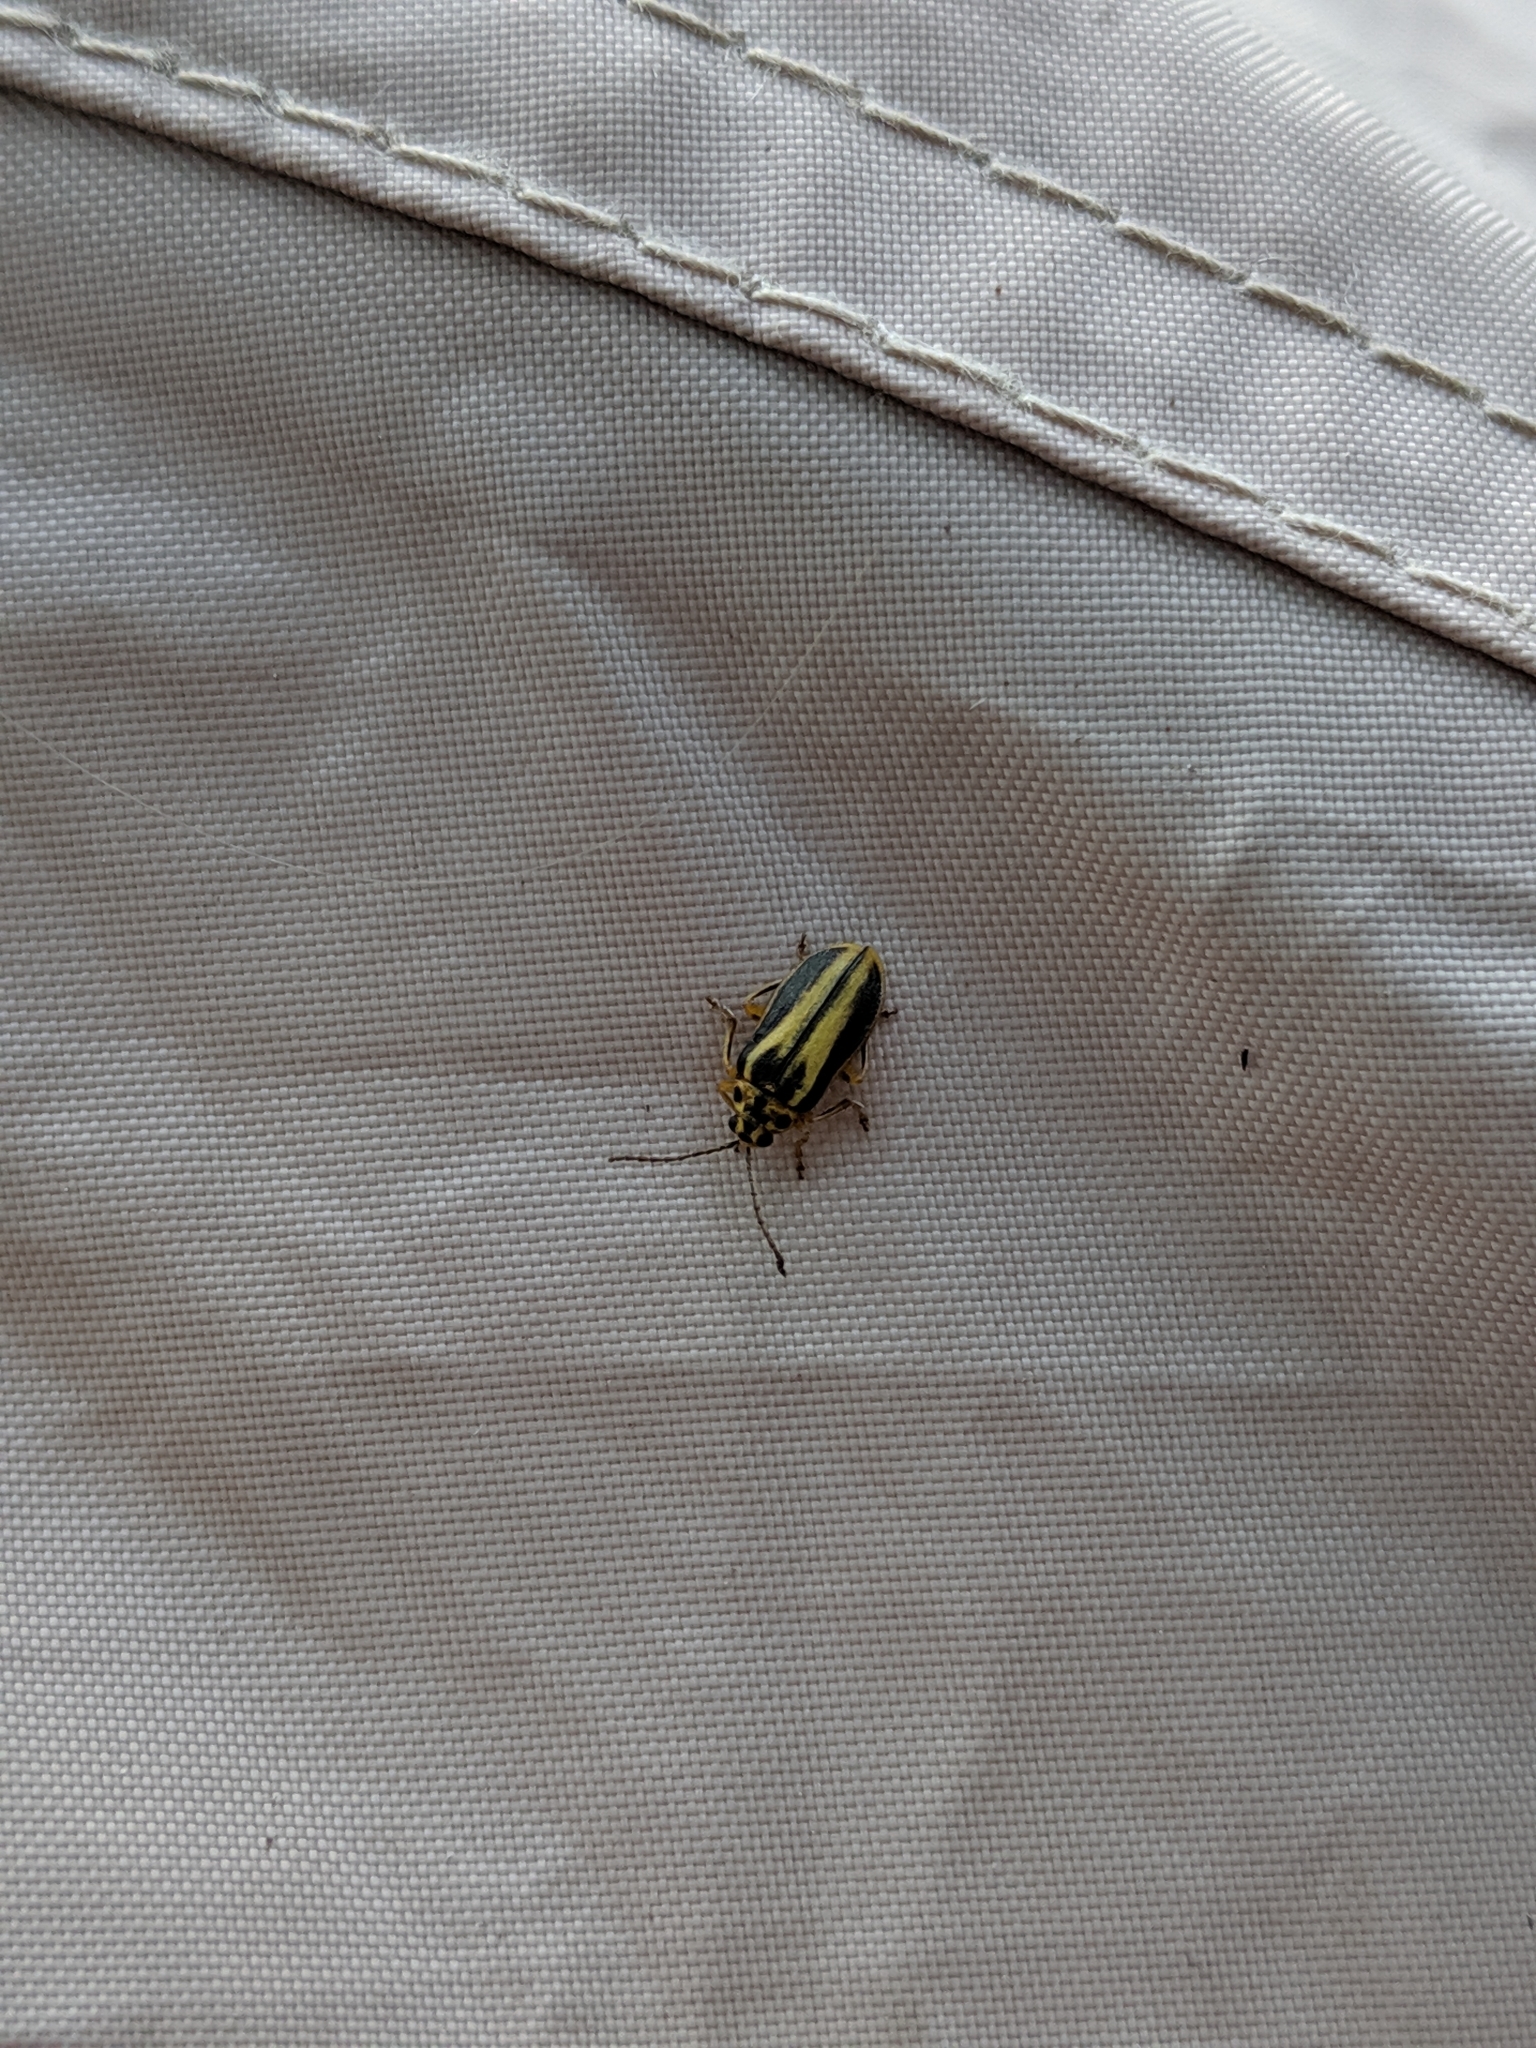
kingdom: Animalia
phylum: Arthropoda
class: Insecta
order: Coleoptera
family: Chrysomelidae
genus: Xanthogaleruca
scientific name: Xanthogaleruca luteola
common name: Elm leaf beetle
